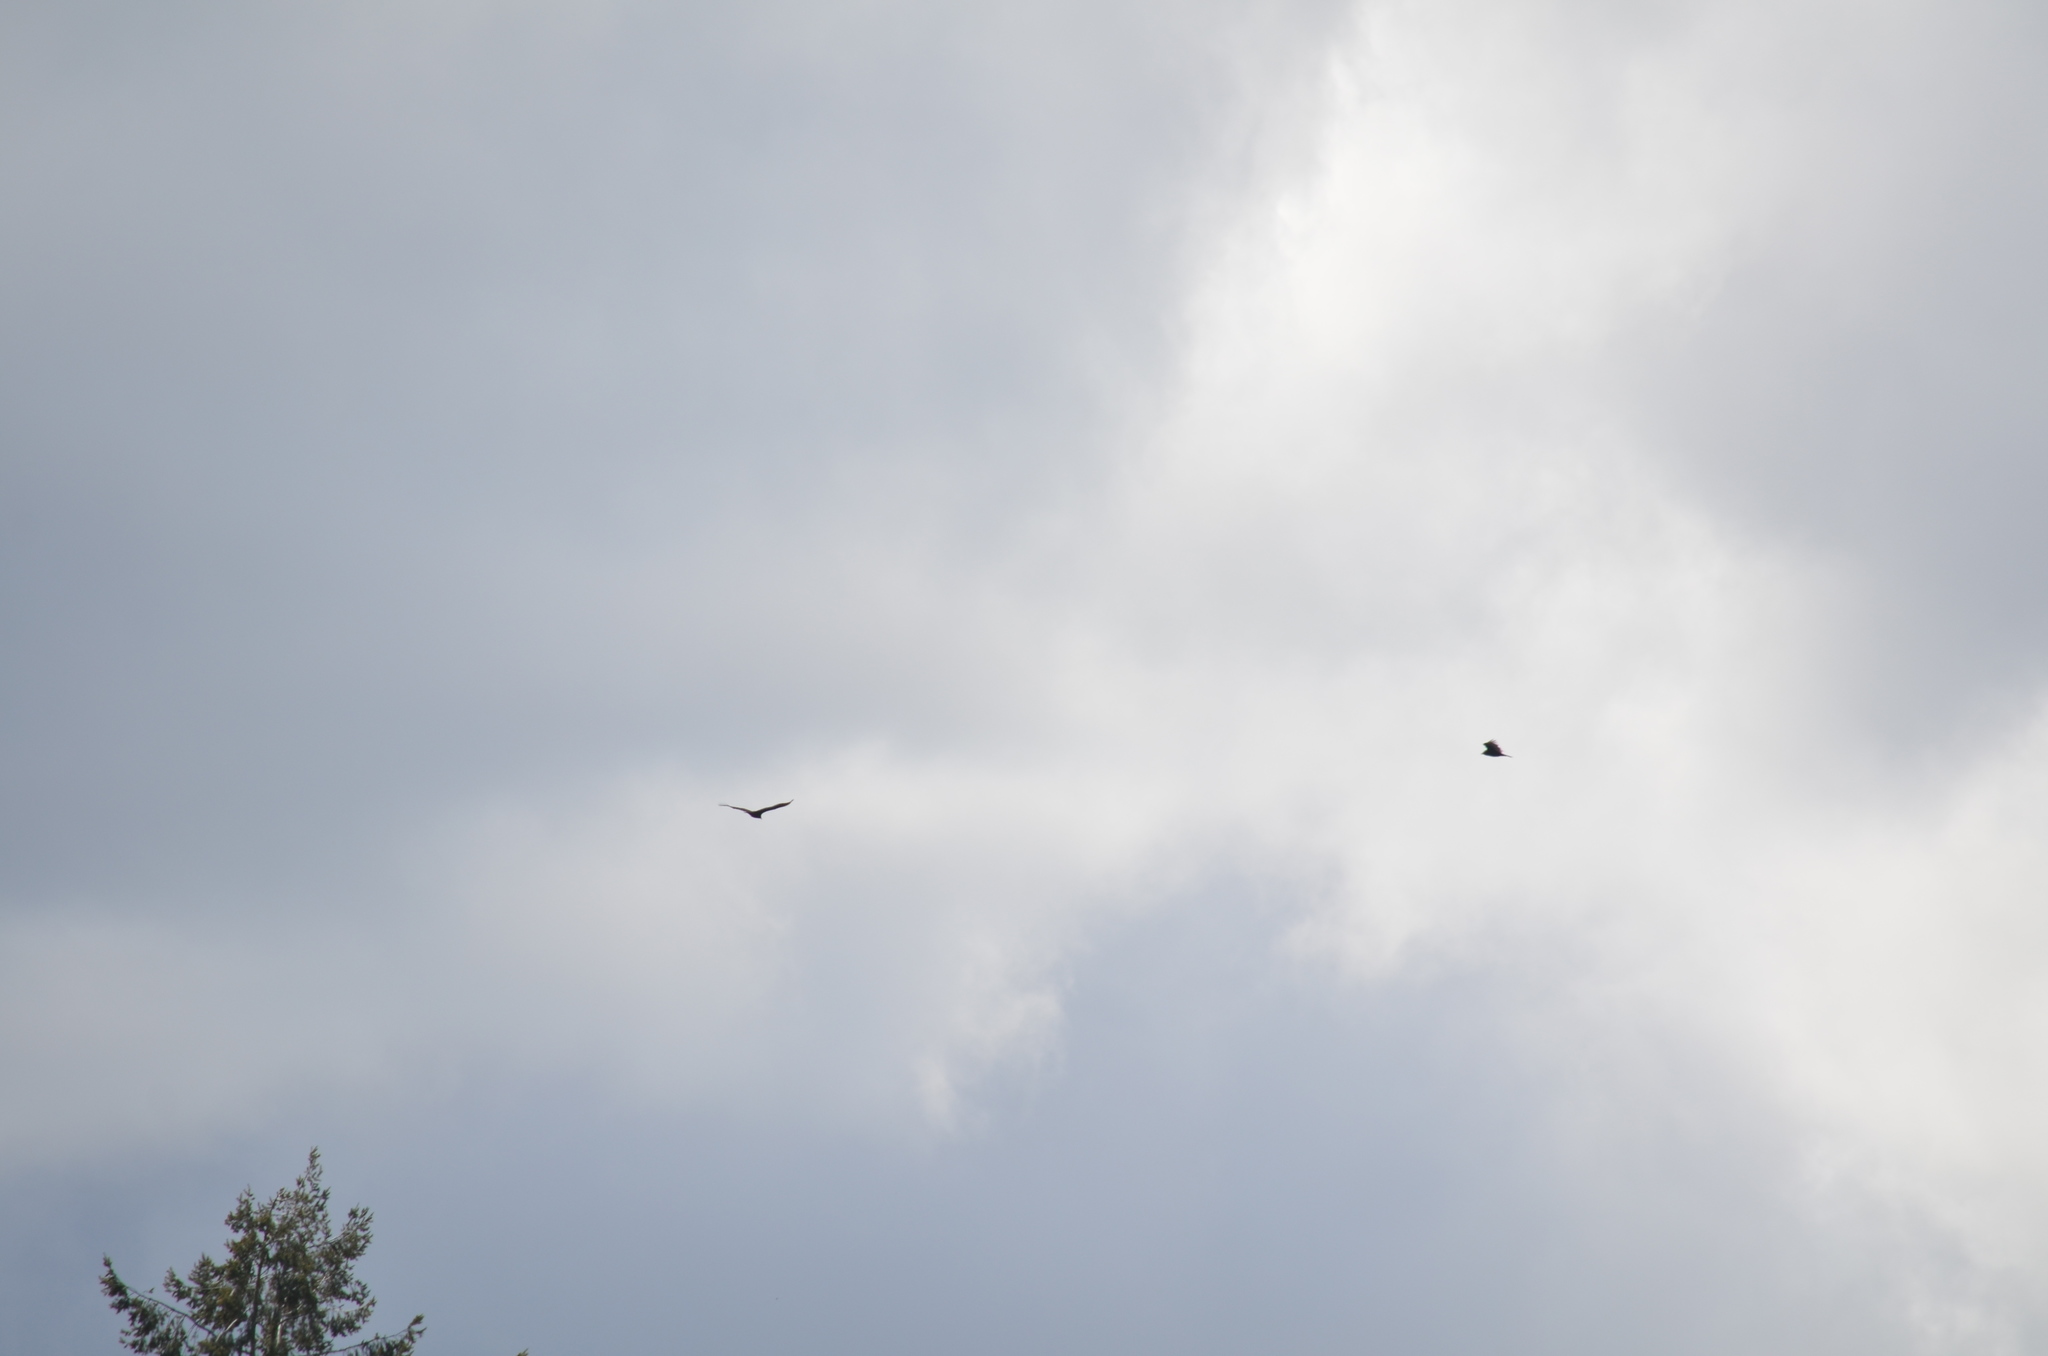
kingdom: Animalia
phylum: Chordata
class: Aves
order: Accipitriformes
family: Cathartidae
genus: Cathartes
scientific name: Cathartes aura
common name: Turkey vulture
